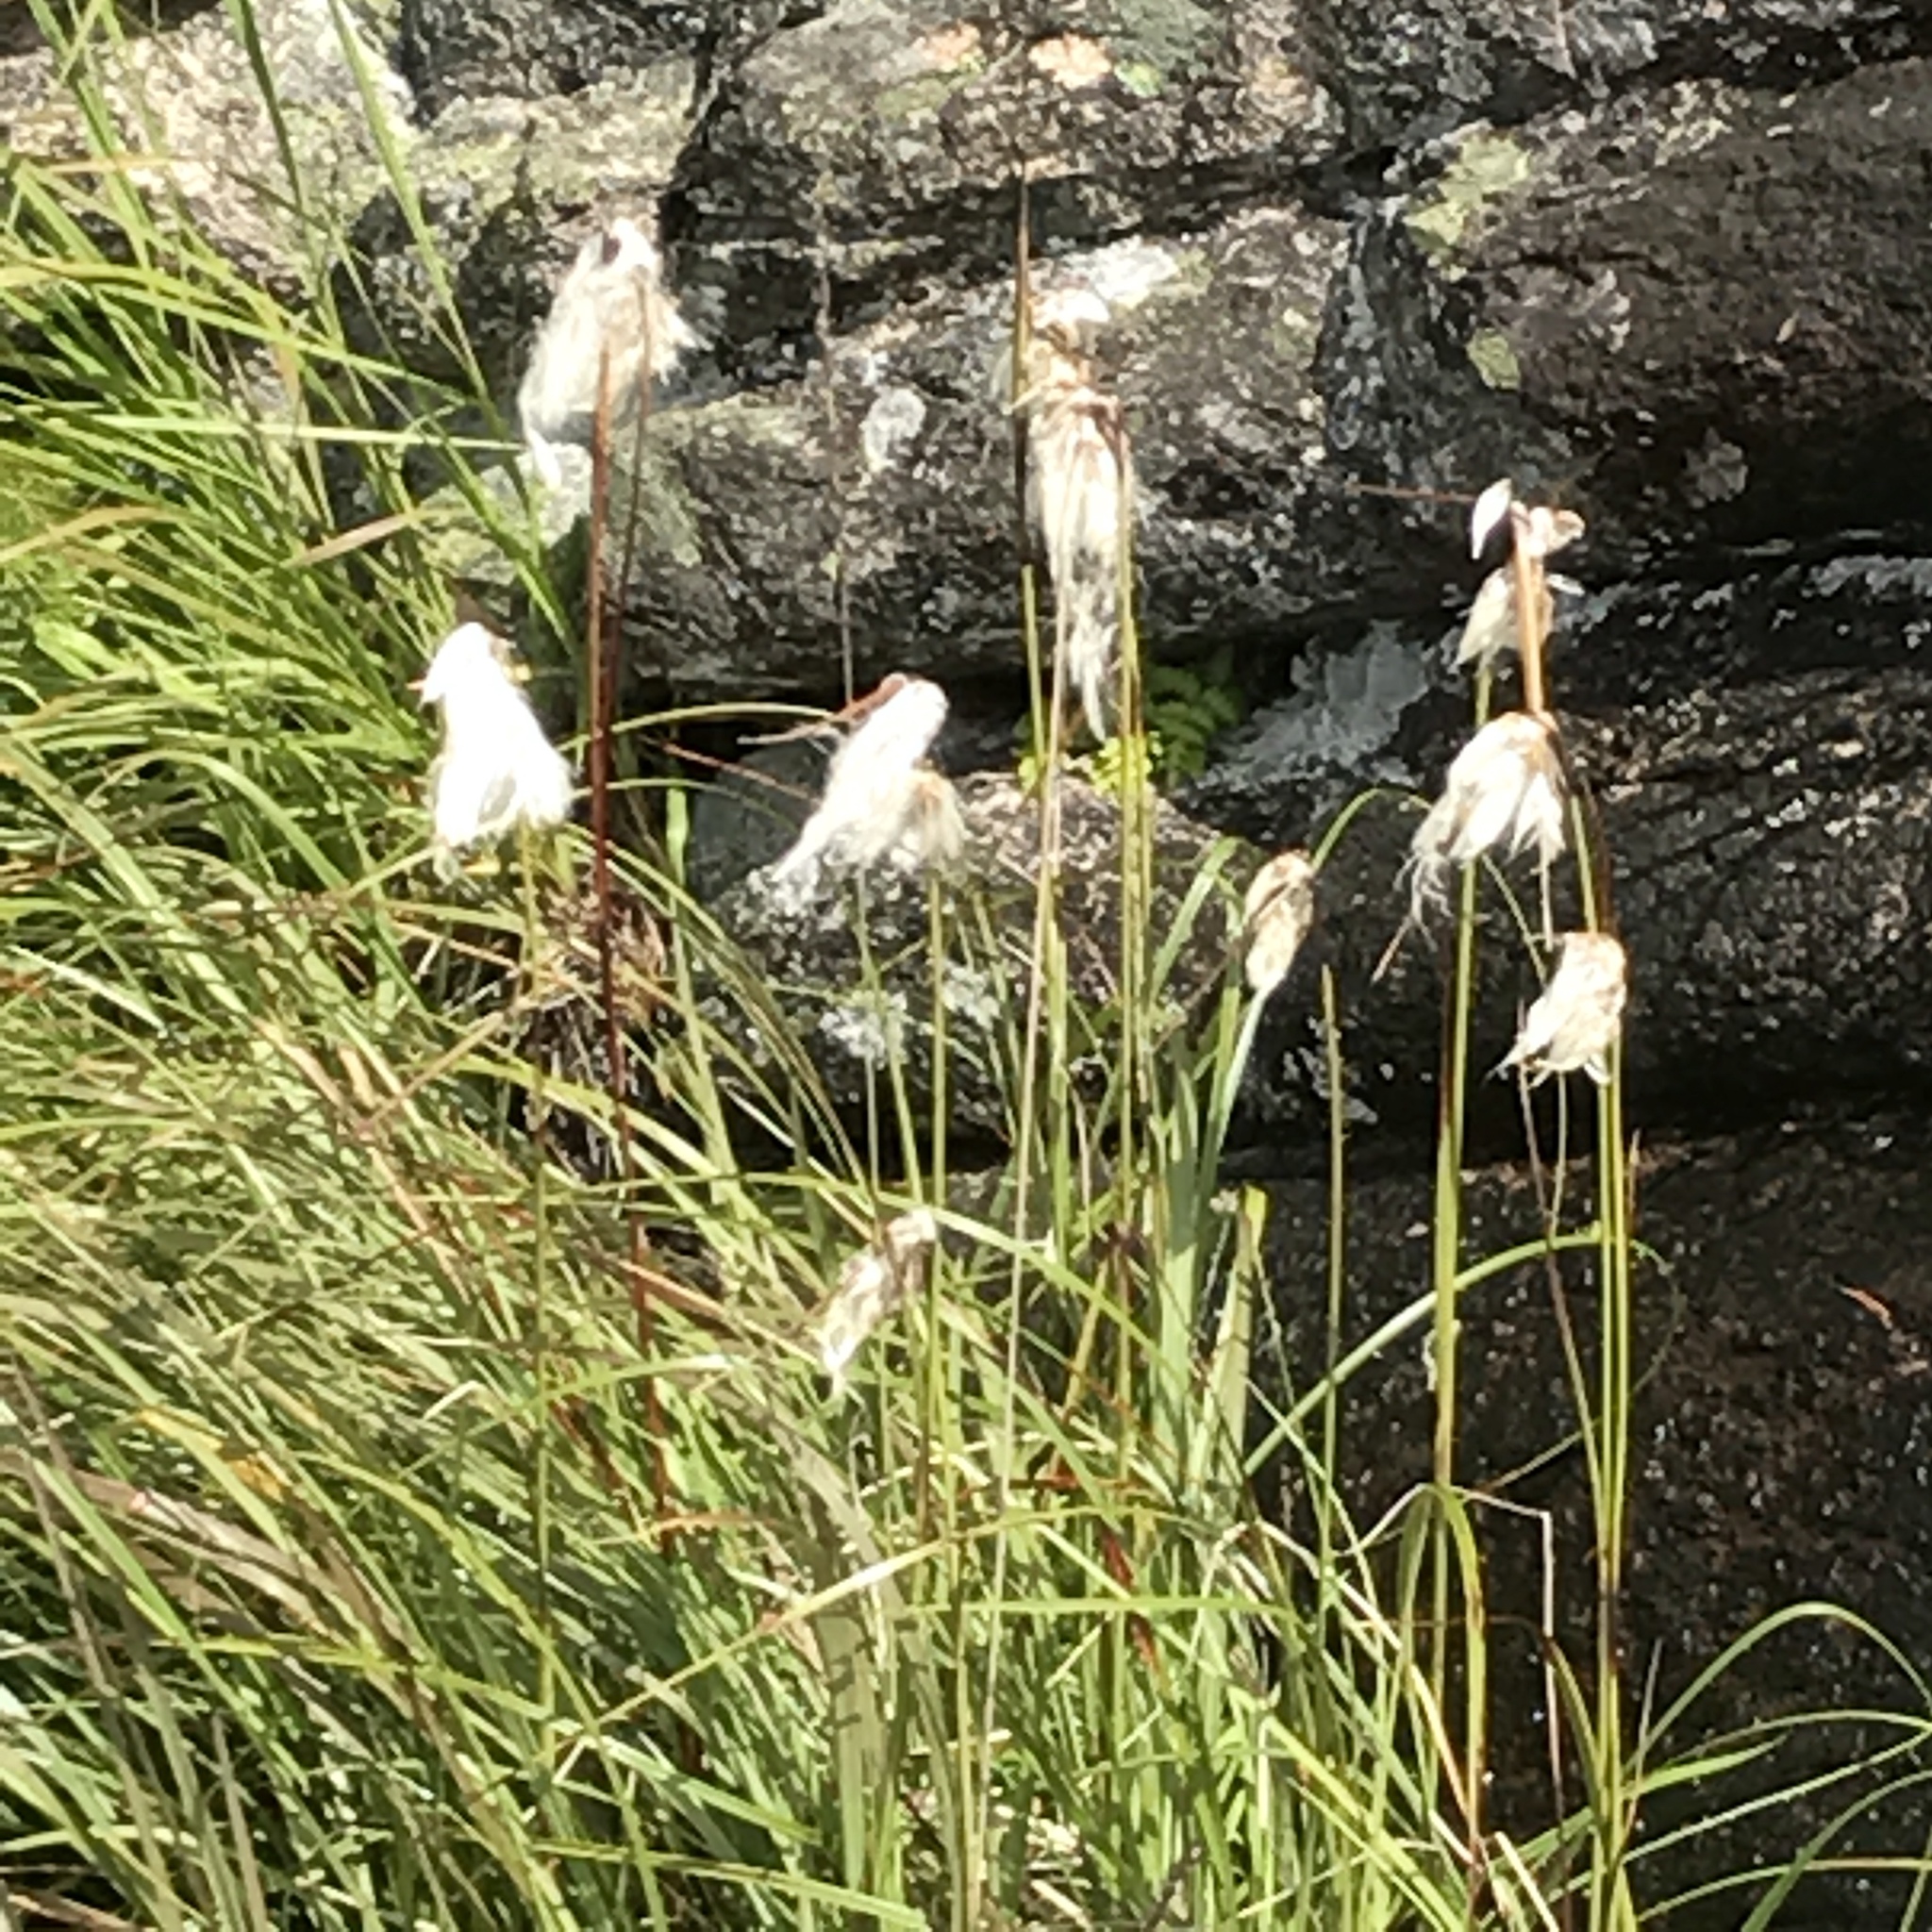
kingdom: Plantae
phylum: Tracheophyta
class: Liliopsida
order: Poales
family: Cyperaceae
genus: Eriophorum
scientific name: Eriophorum angustifolium
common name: Common cottongrass
